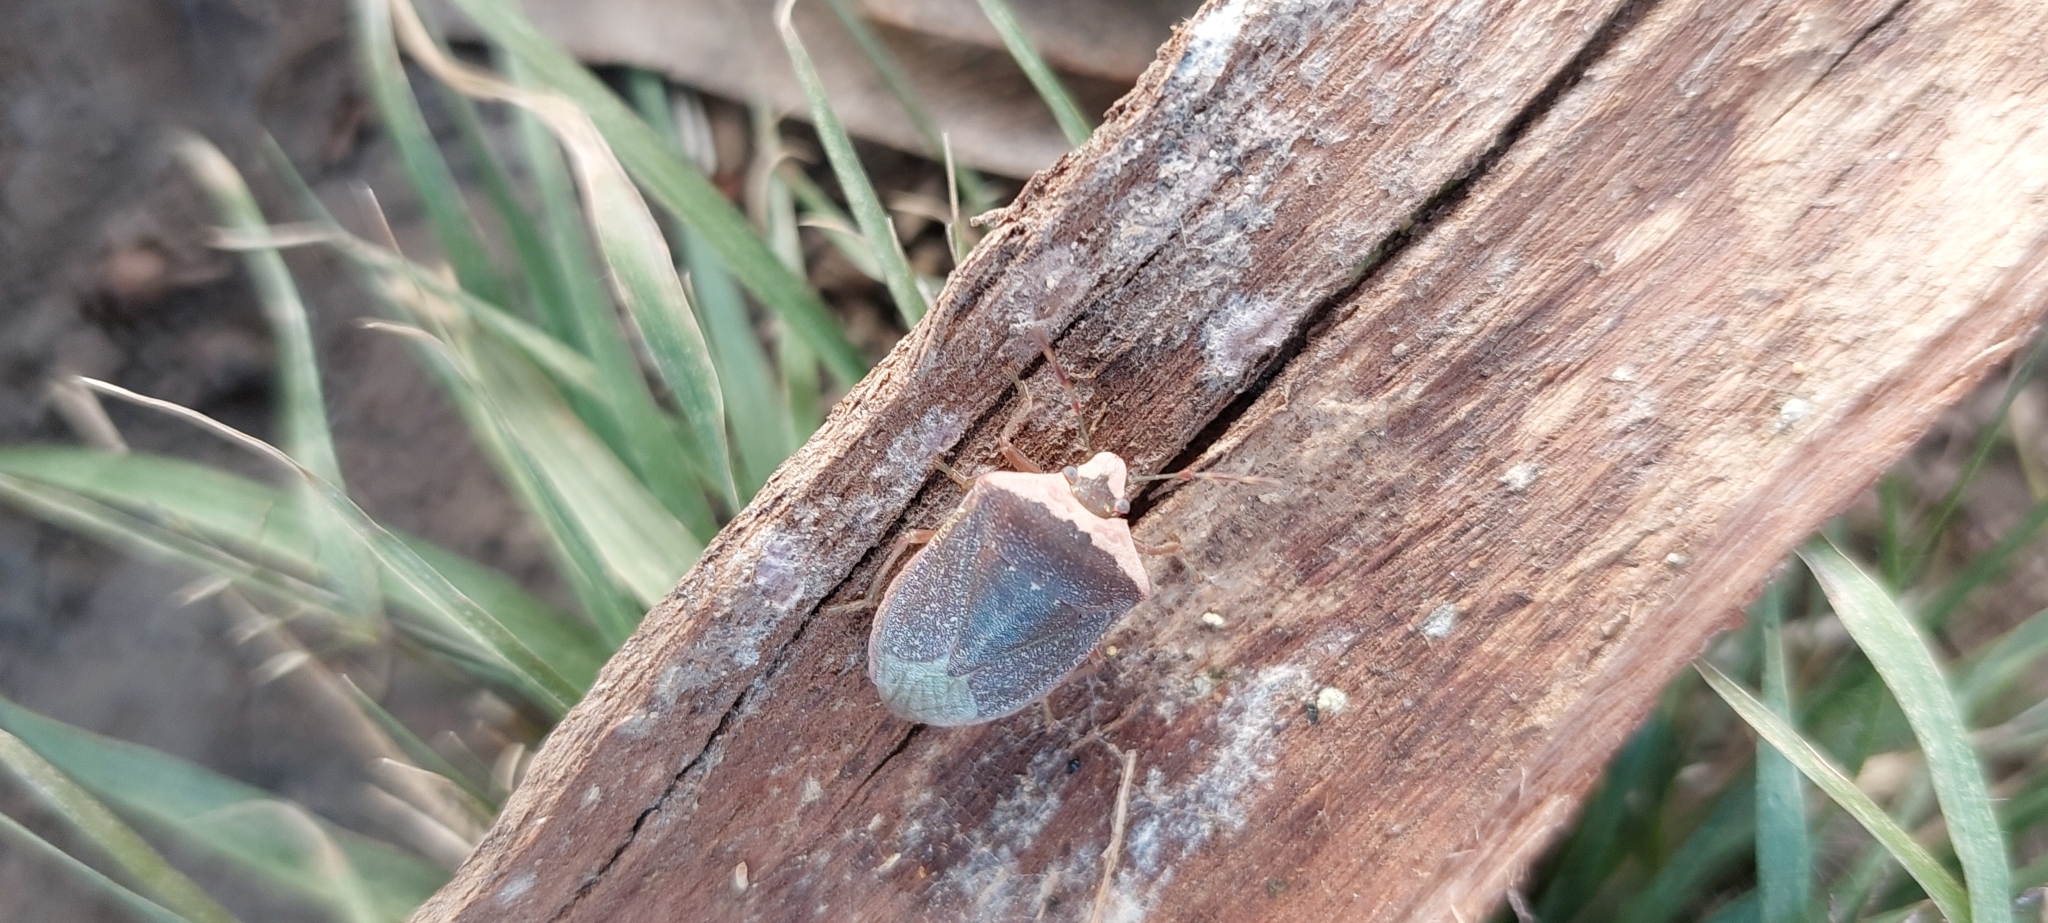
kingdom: Animalia
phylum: Arthropoda
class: Insecta
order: Hemiptera
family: Pentatomidae
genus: Nezara
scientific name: Nezara viridula
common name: Southern green stink bug
